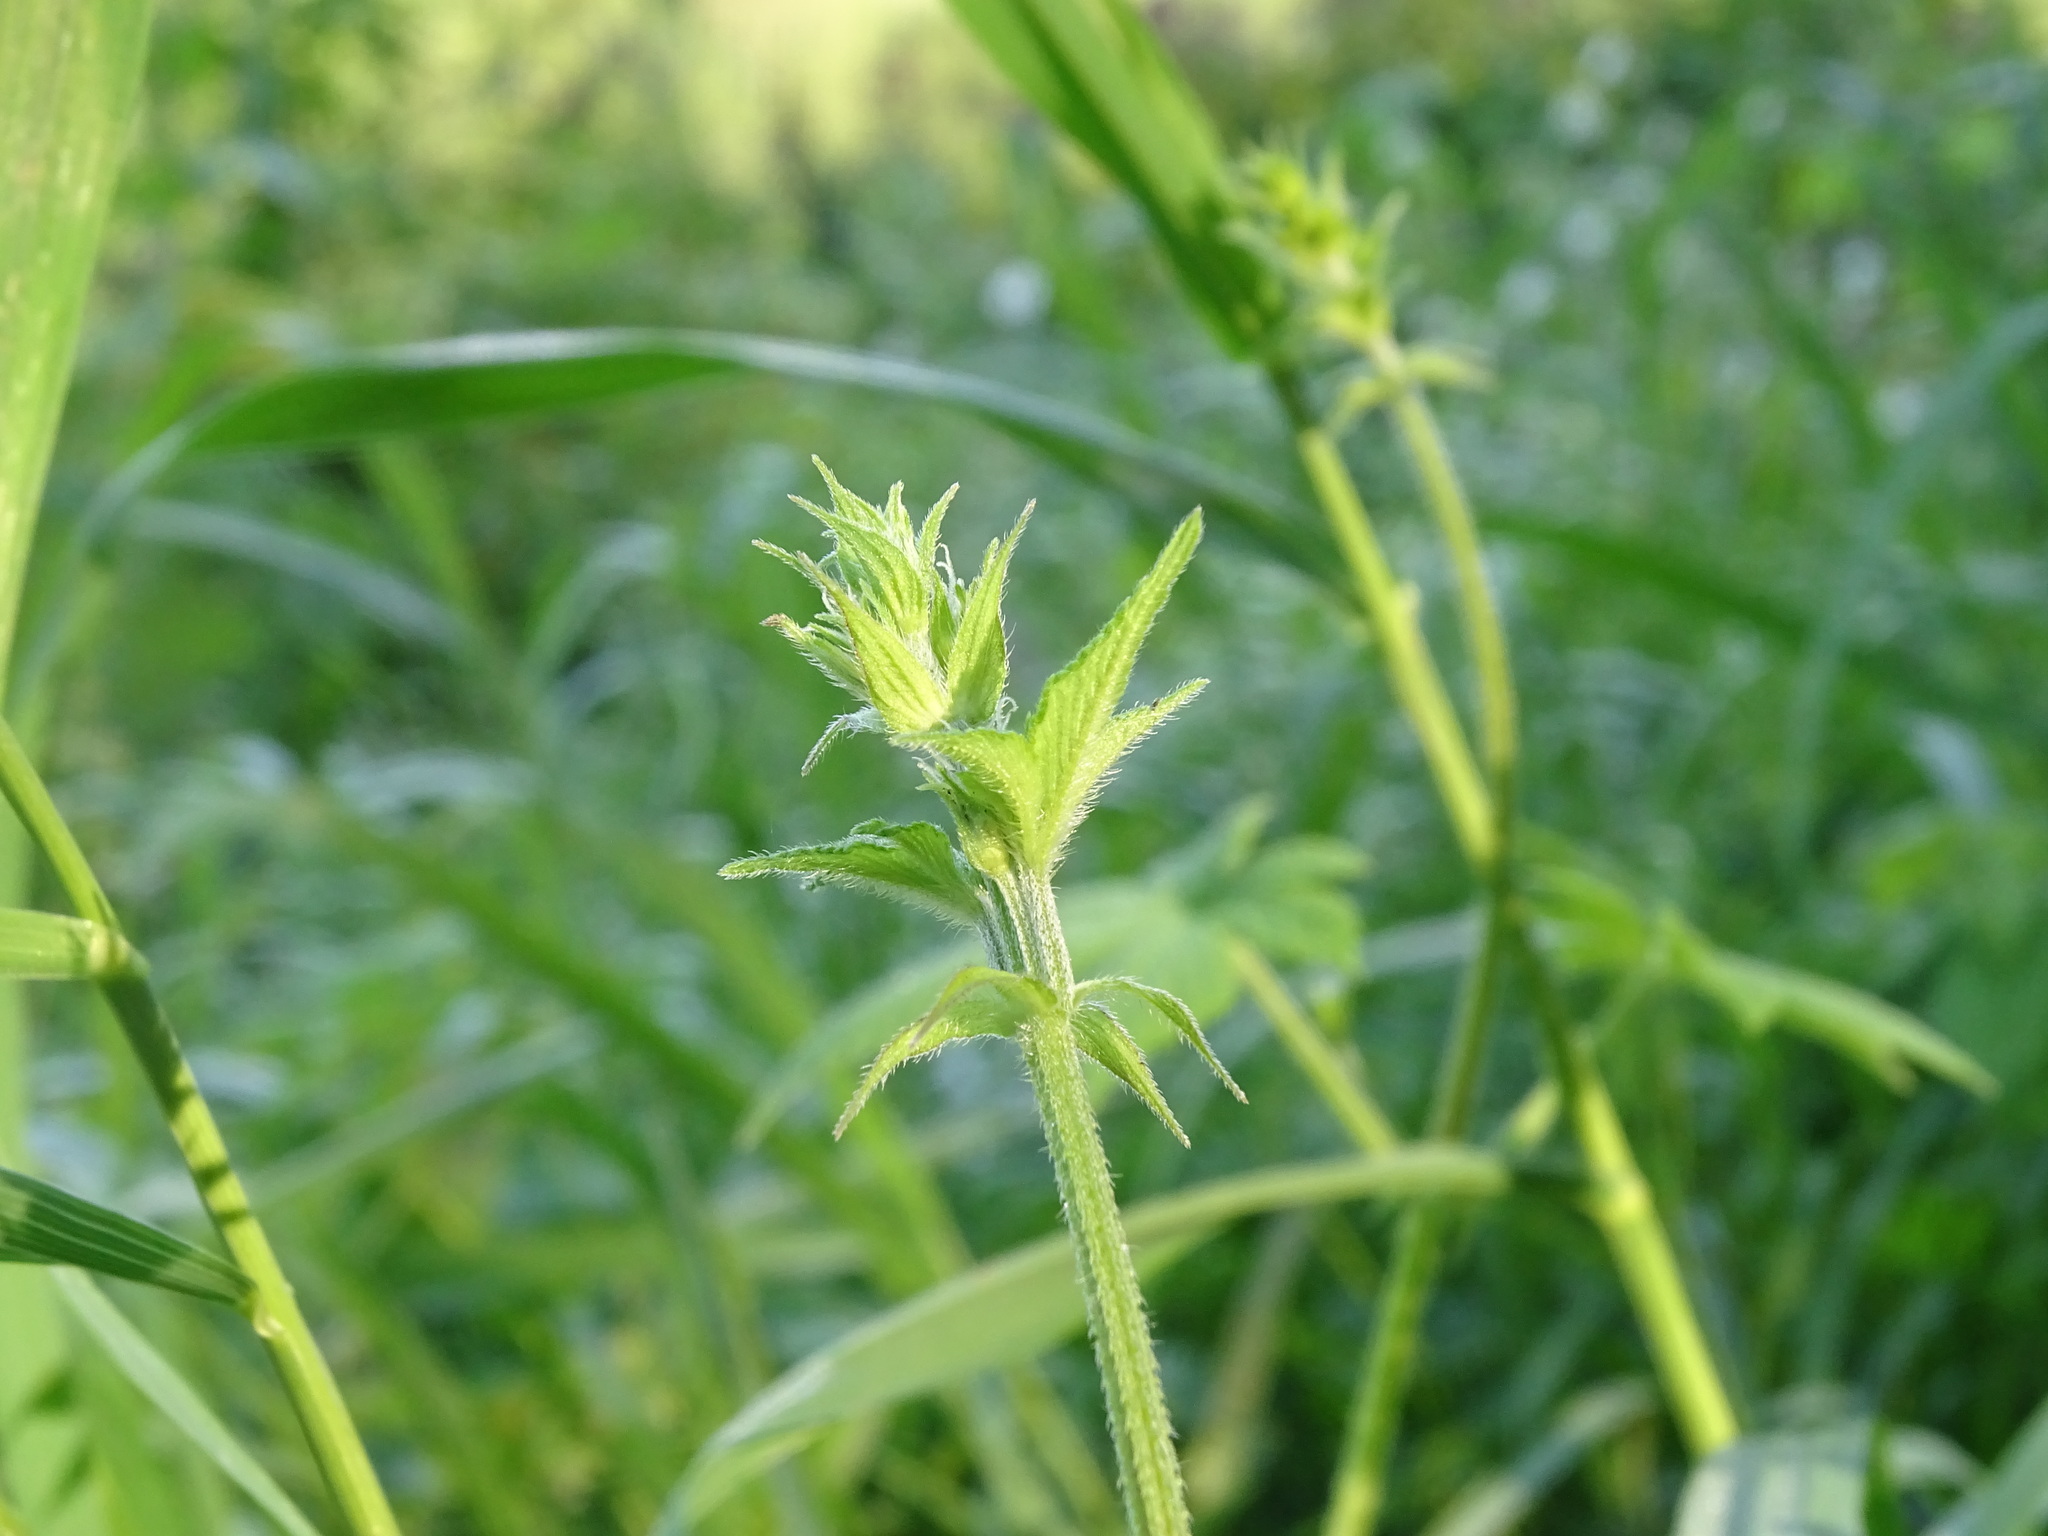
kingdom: Plantae
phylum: Tracheophyta
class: Magnoliopsida
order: Rosales
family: Cannabaceae
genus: Humulus
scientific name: Humulus scandens
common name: Japanese hop
